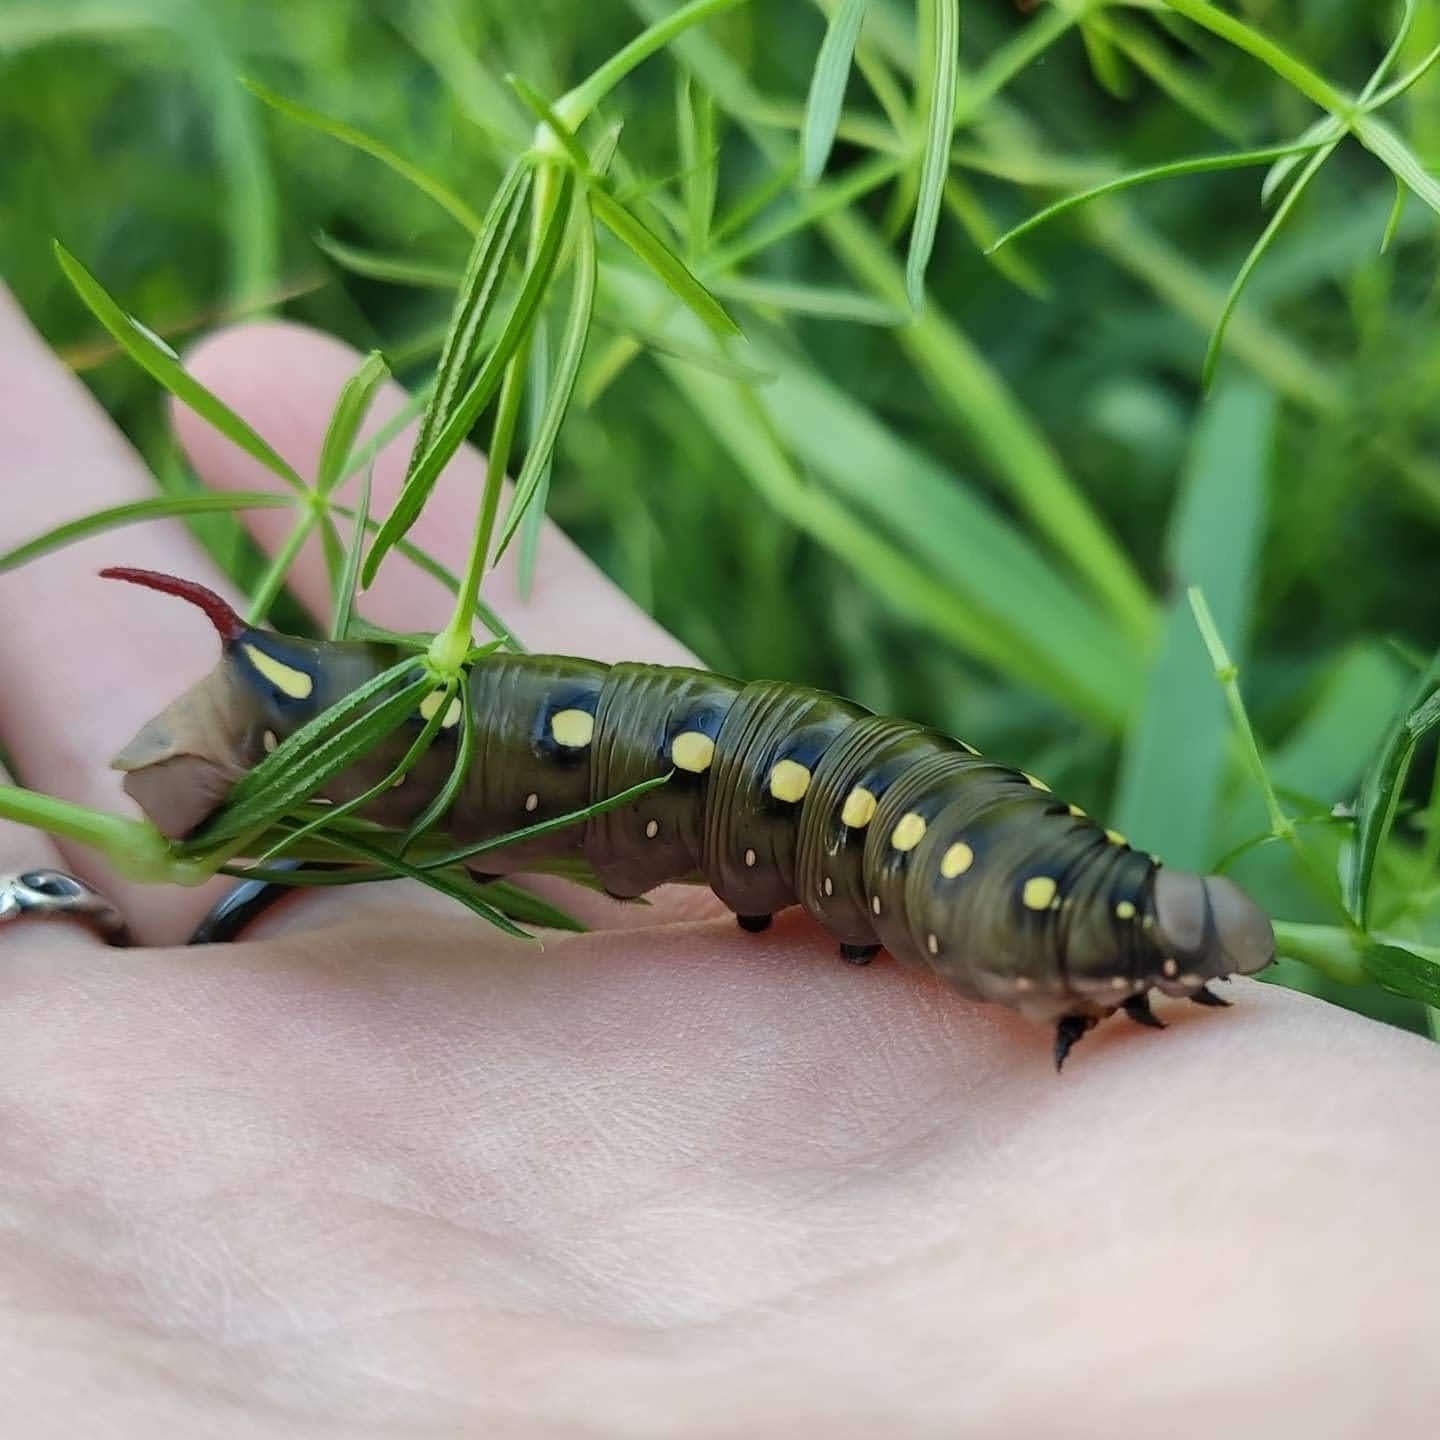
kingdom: Animalia
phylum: Arthropoda
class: Insecta
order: Lepidoptera
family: Sphingidae
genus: Hyles
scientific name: Hyles gallii
